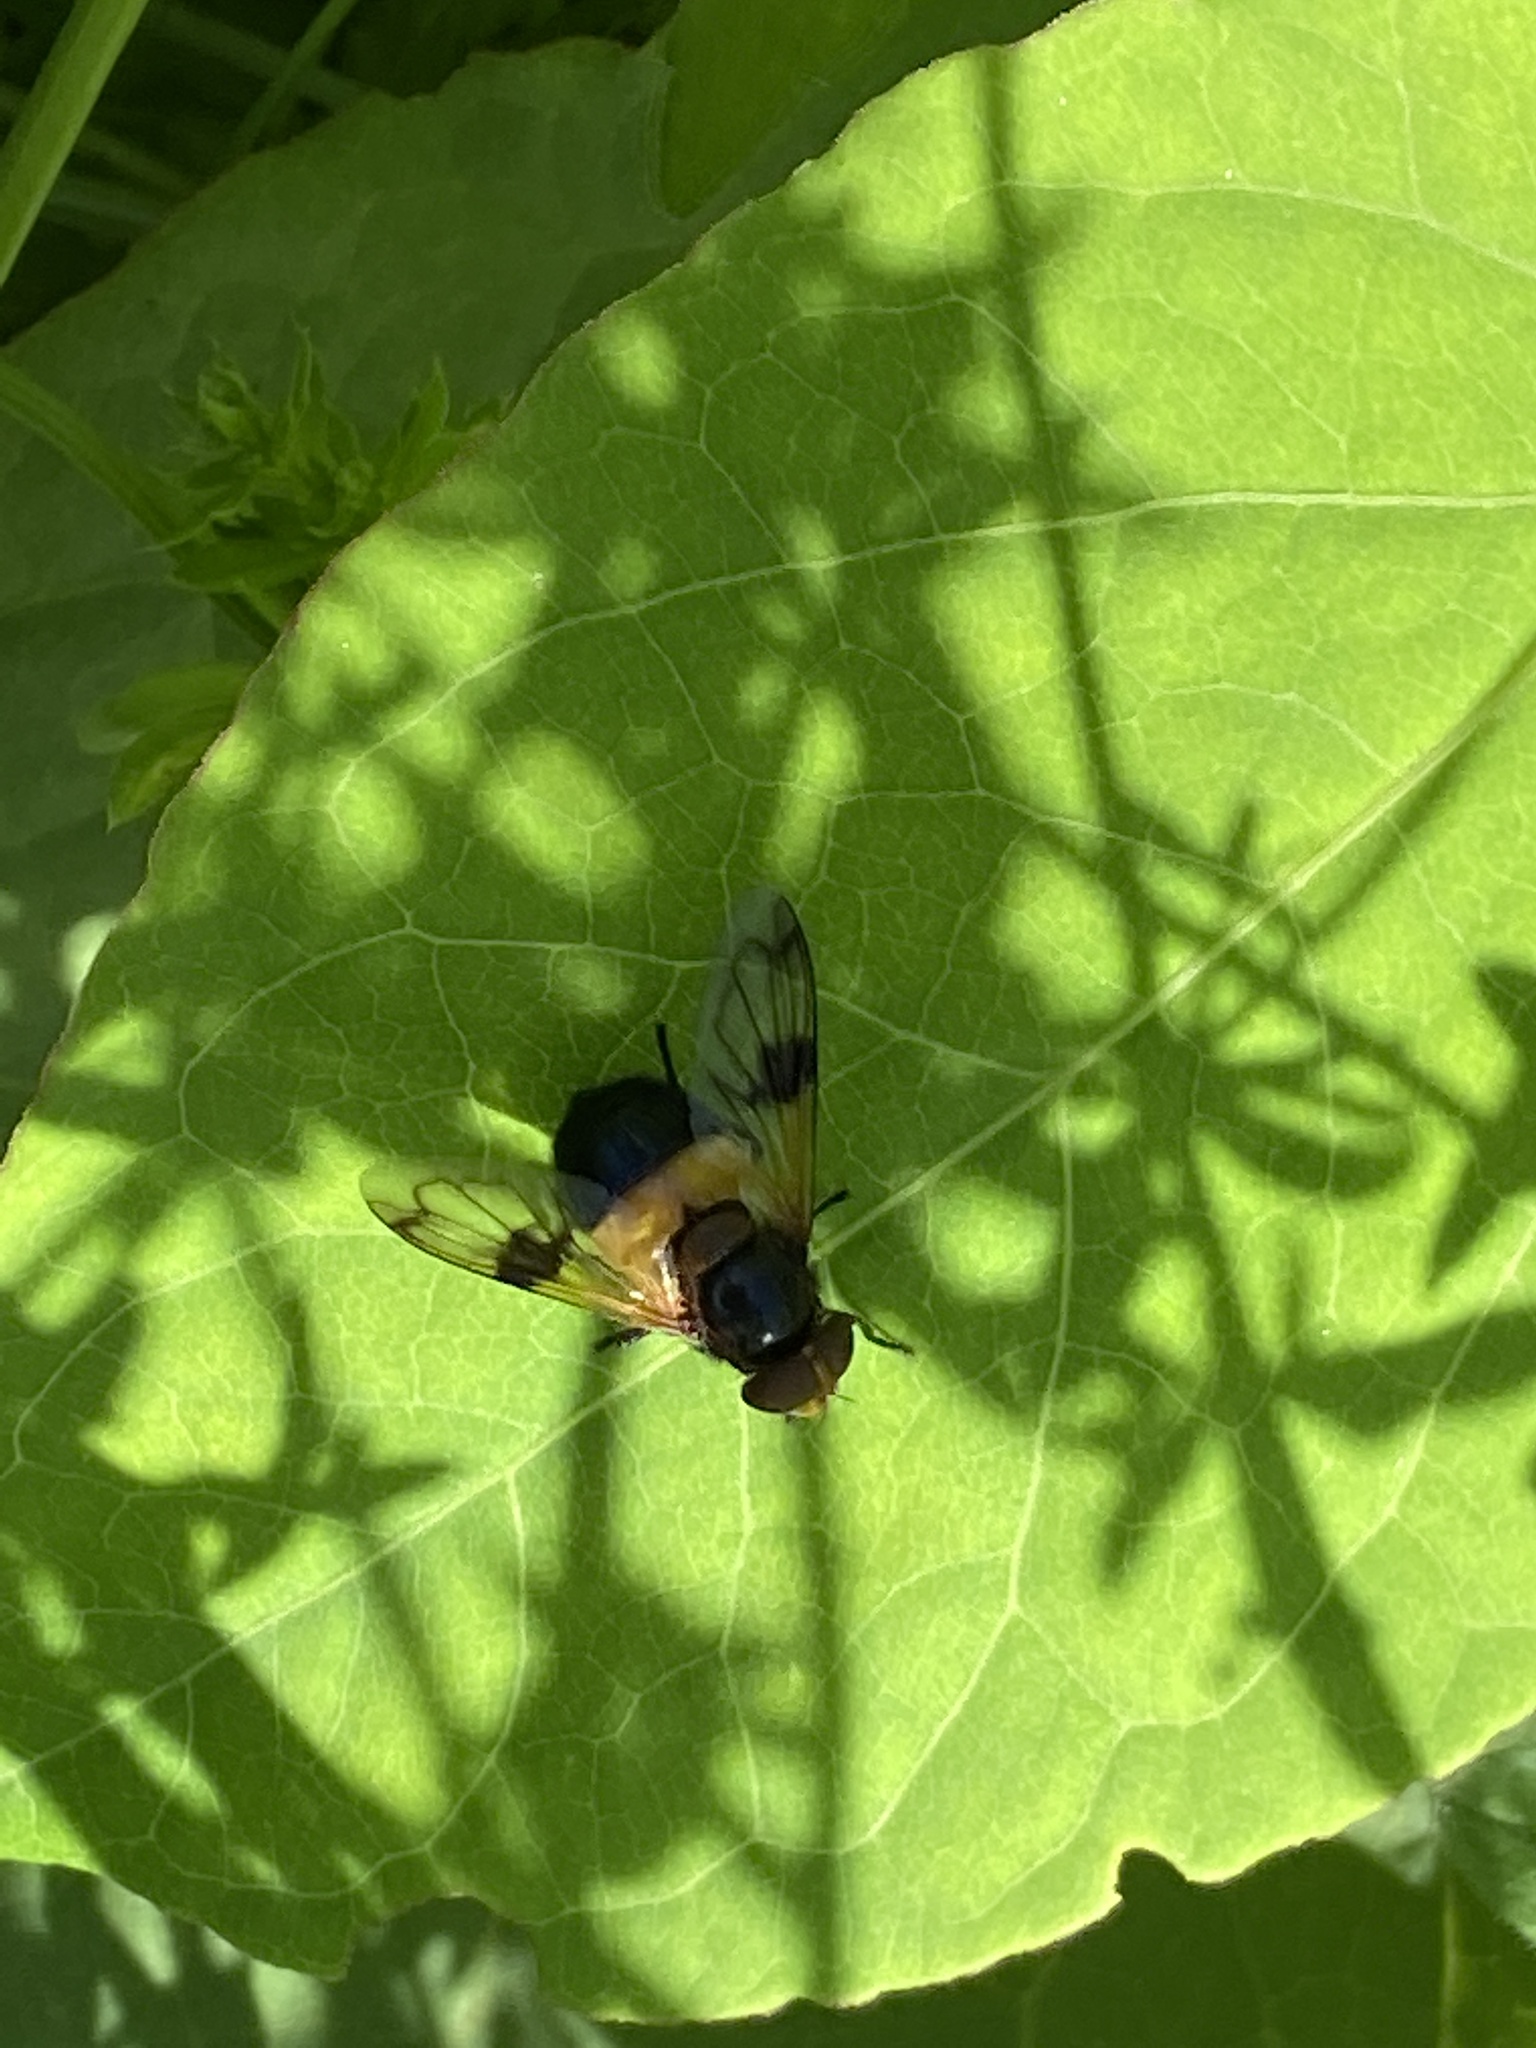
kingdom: Animalia
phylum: Arthropoda
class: Insecta
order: Diptera
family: Syrphidae
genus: Volucella
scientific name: Volucella pellucens
